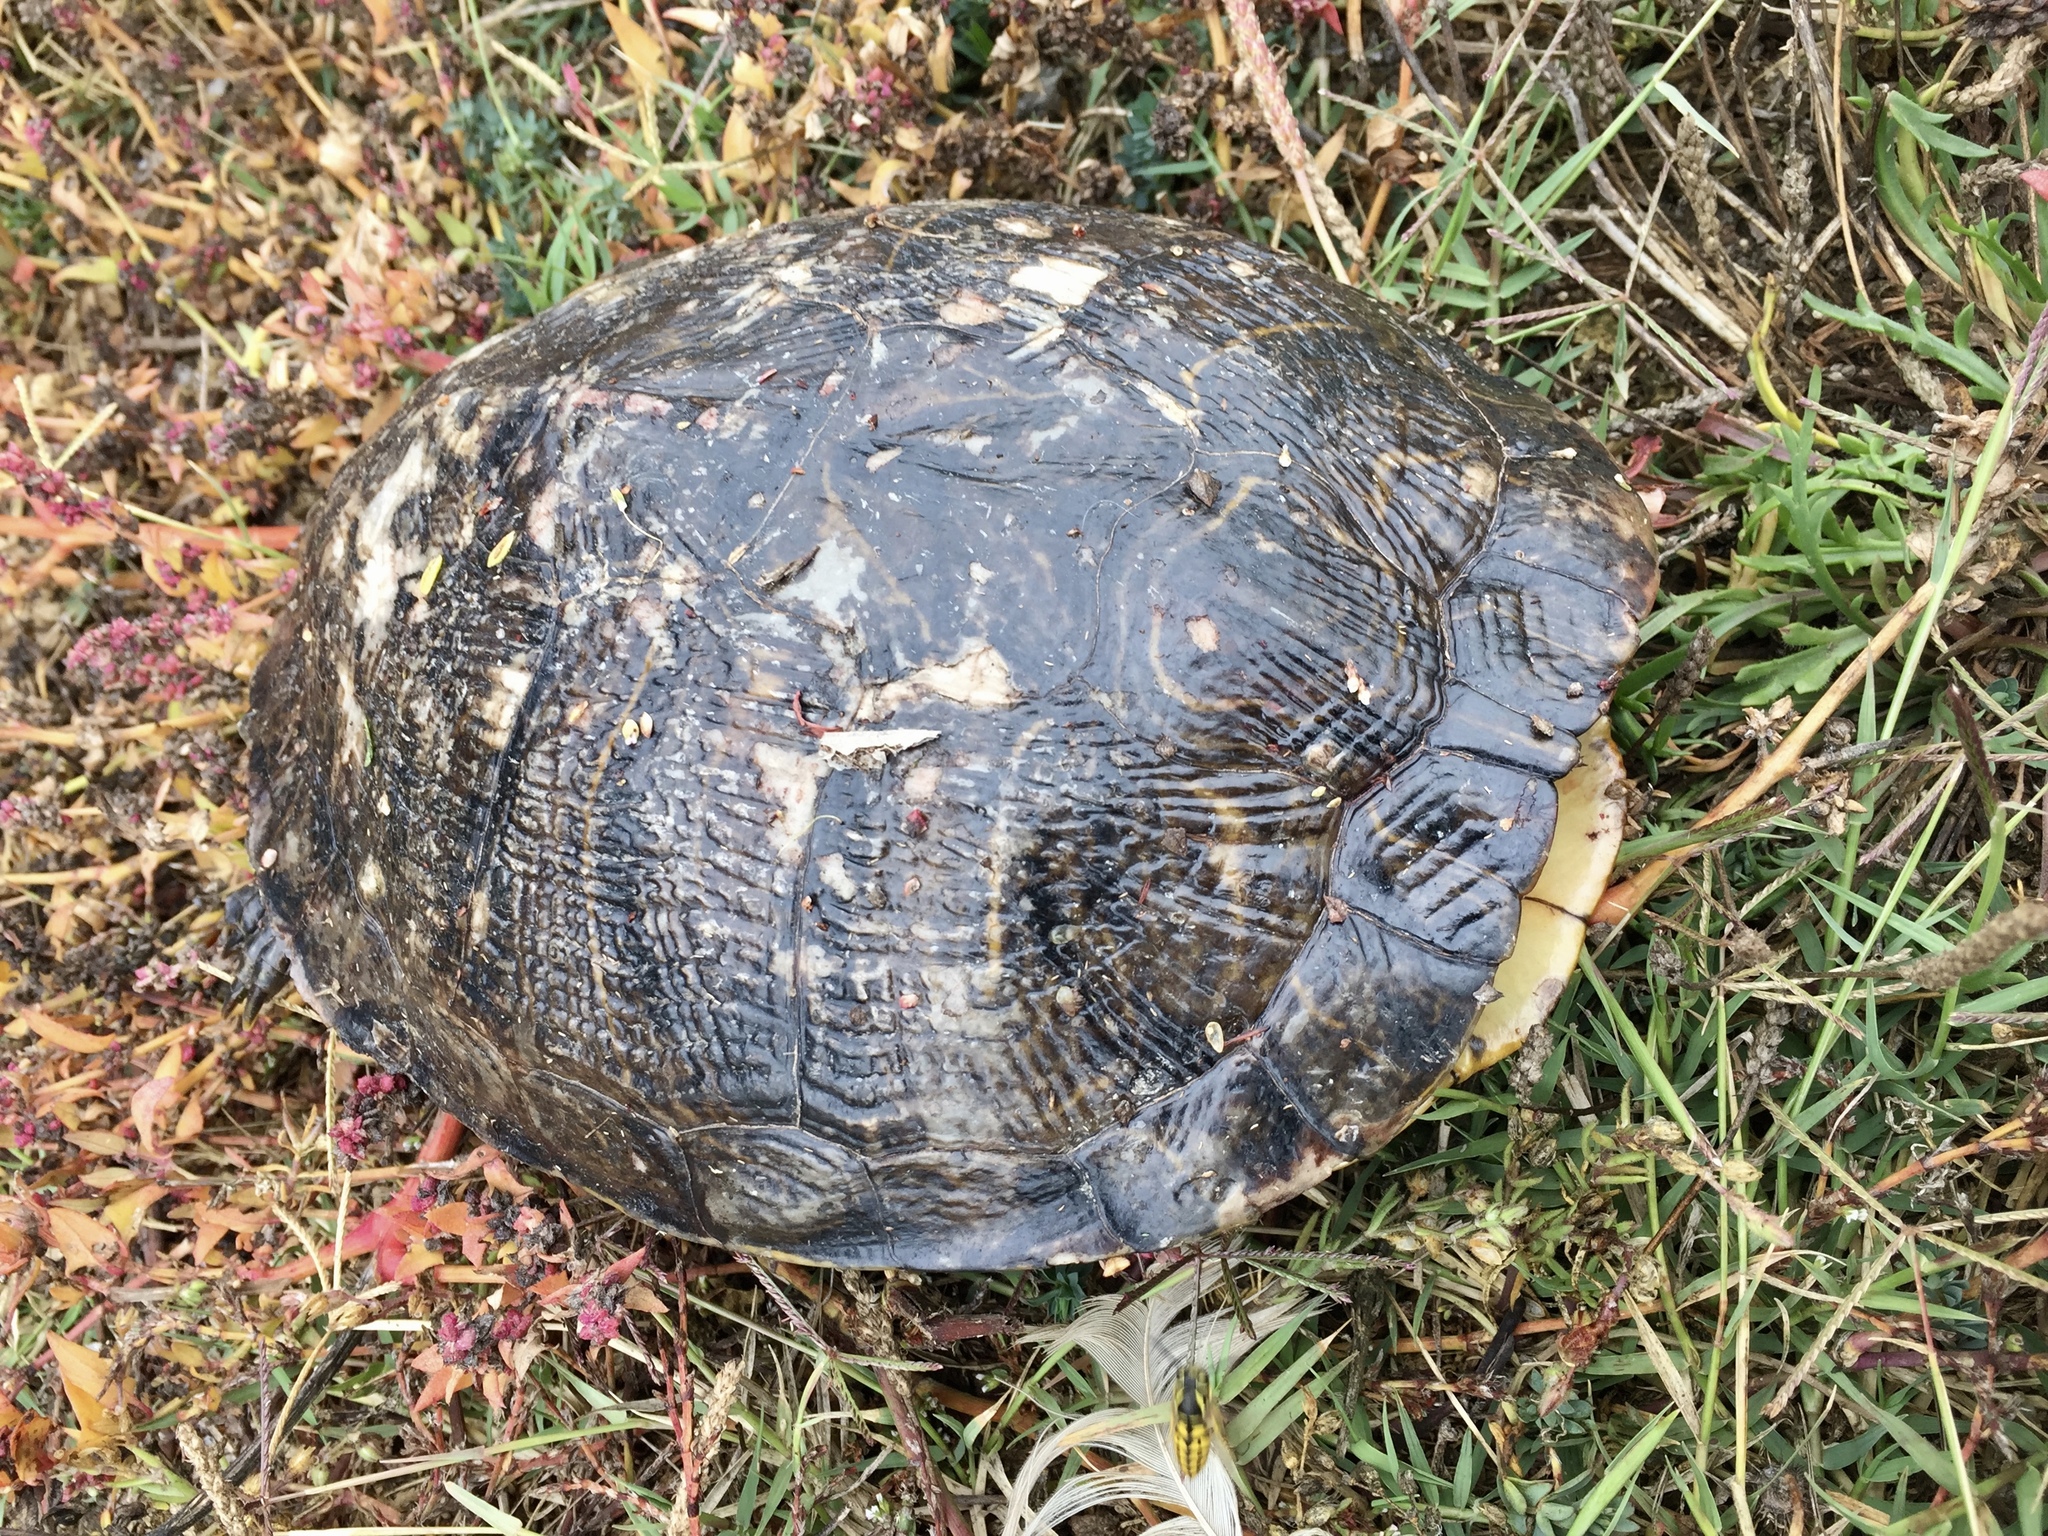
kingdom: Animalia
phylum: Chordata
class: Testudines
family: Emydidae
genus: Trachemys
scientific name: Trachemys scripta
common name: Slider
